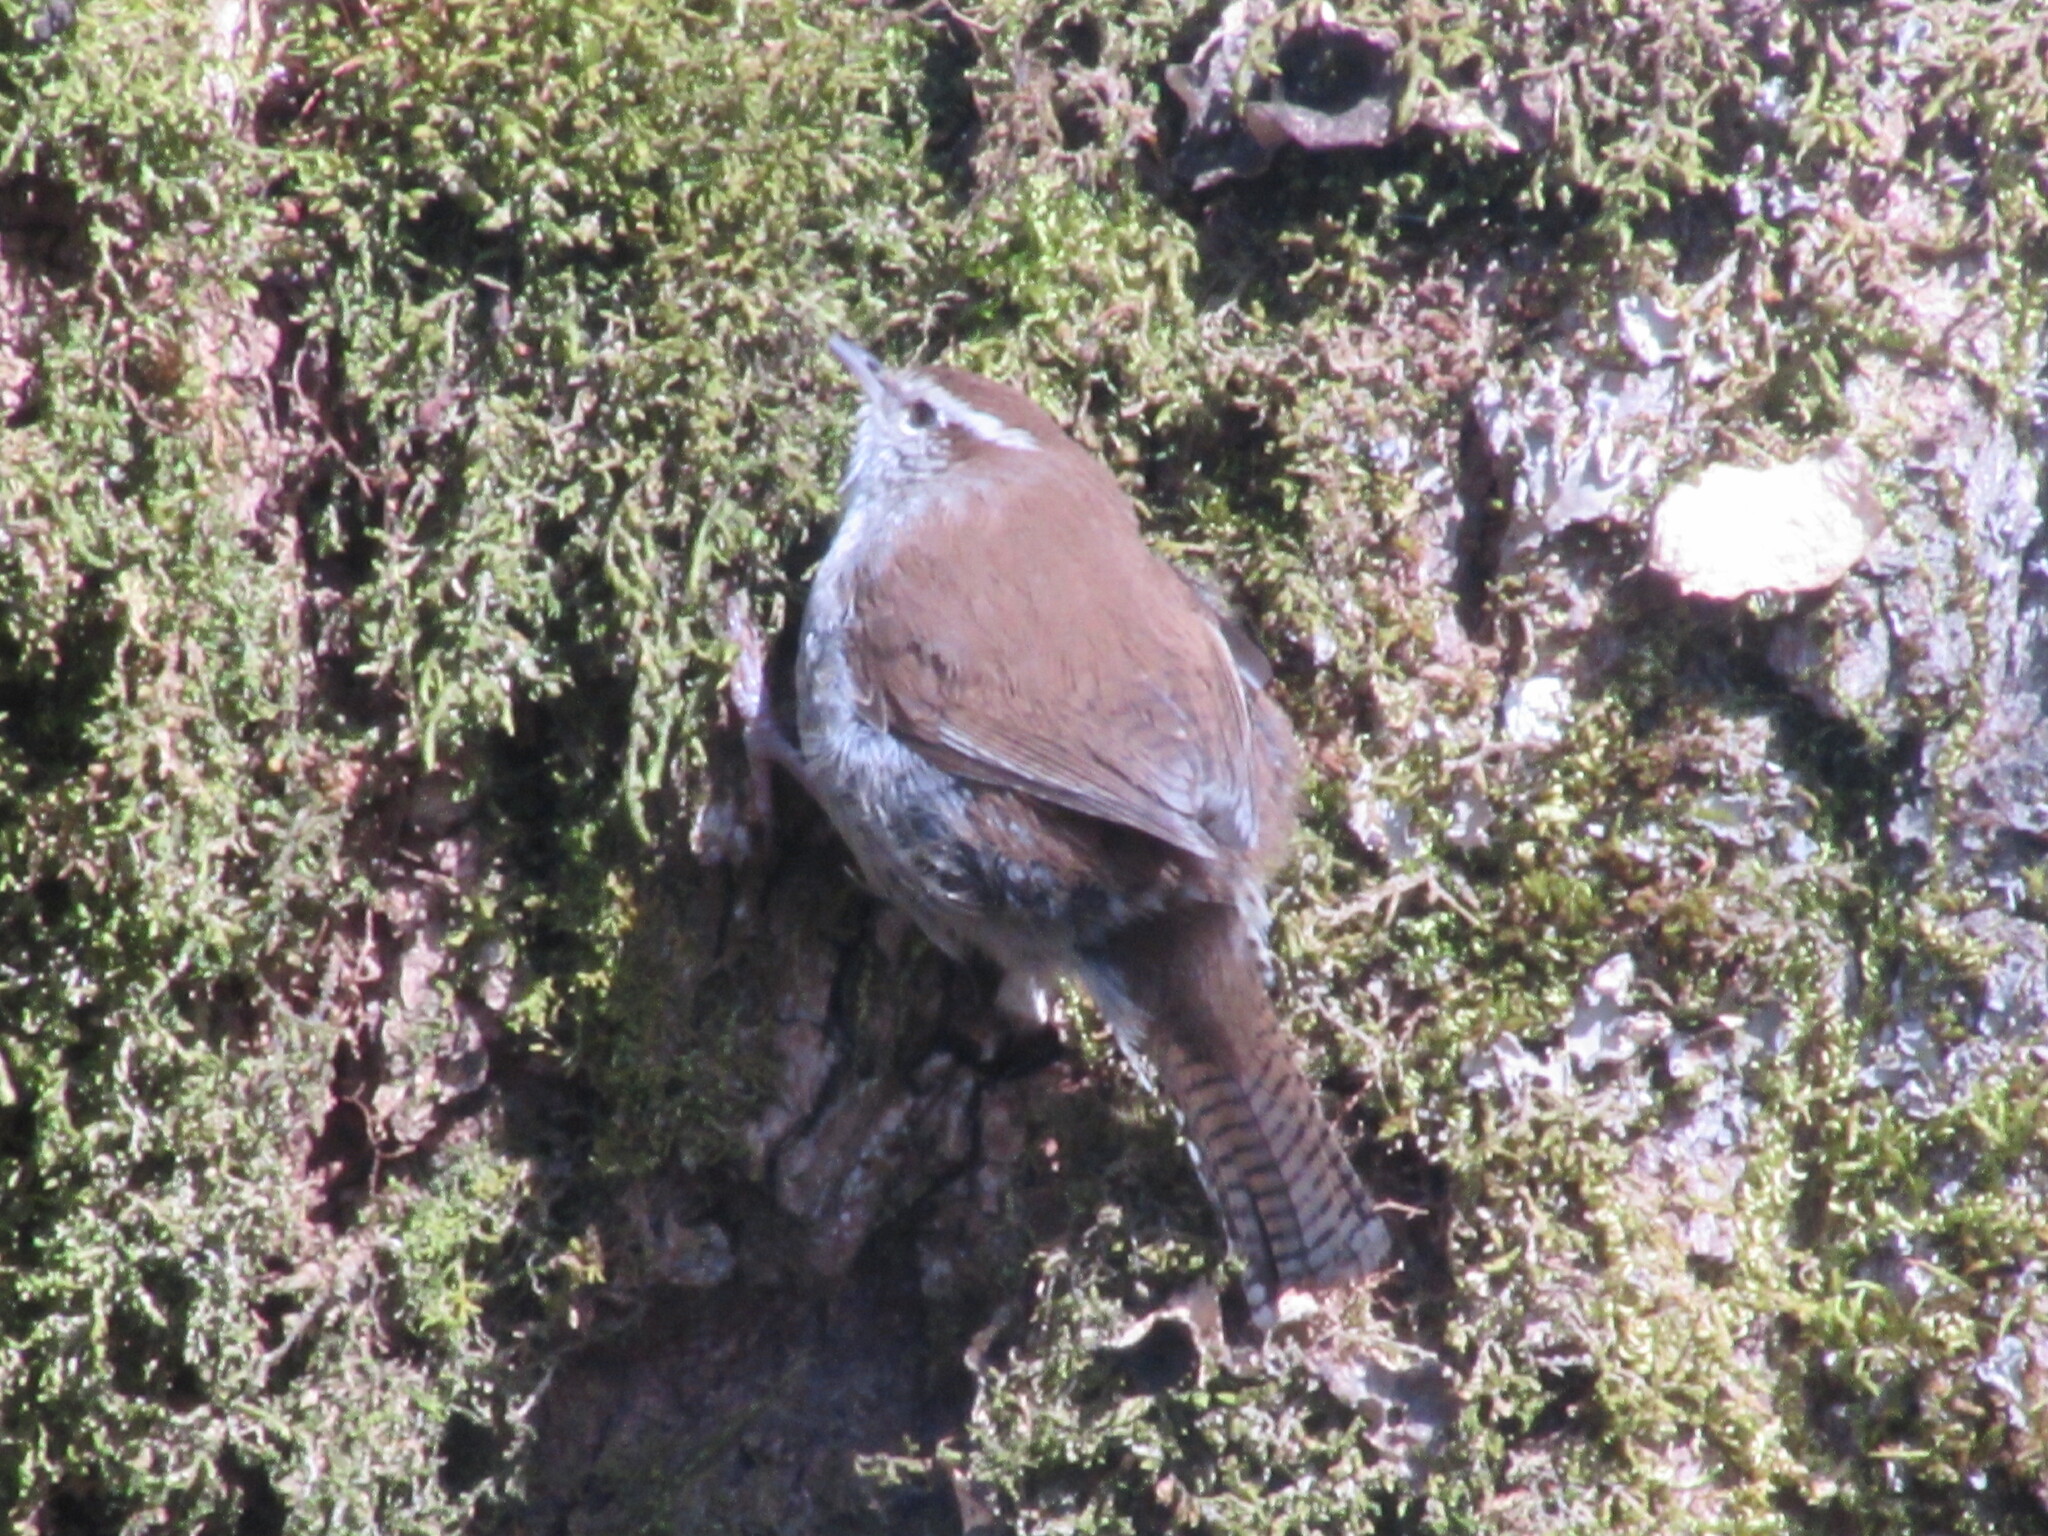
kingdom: Animalia
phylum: Chordata
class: Aves
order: Passeriformes
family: Troglodytidae
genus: Thryomanes
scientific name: Thryomanes bewickii
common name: Bewick's wren
